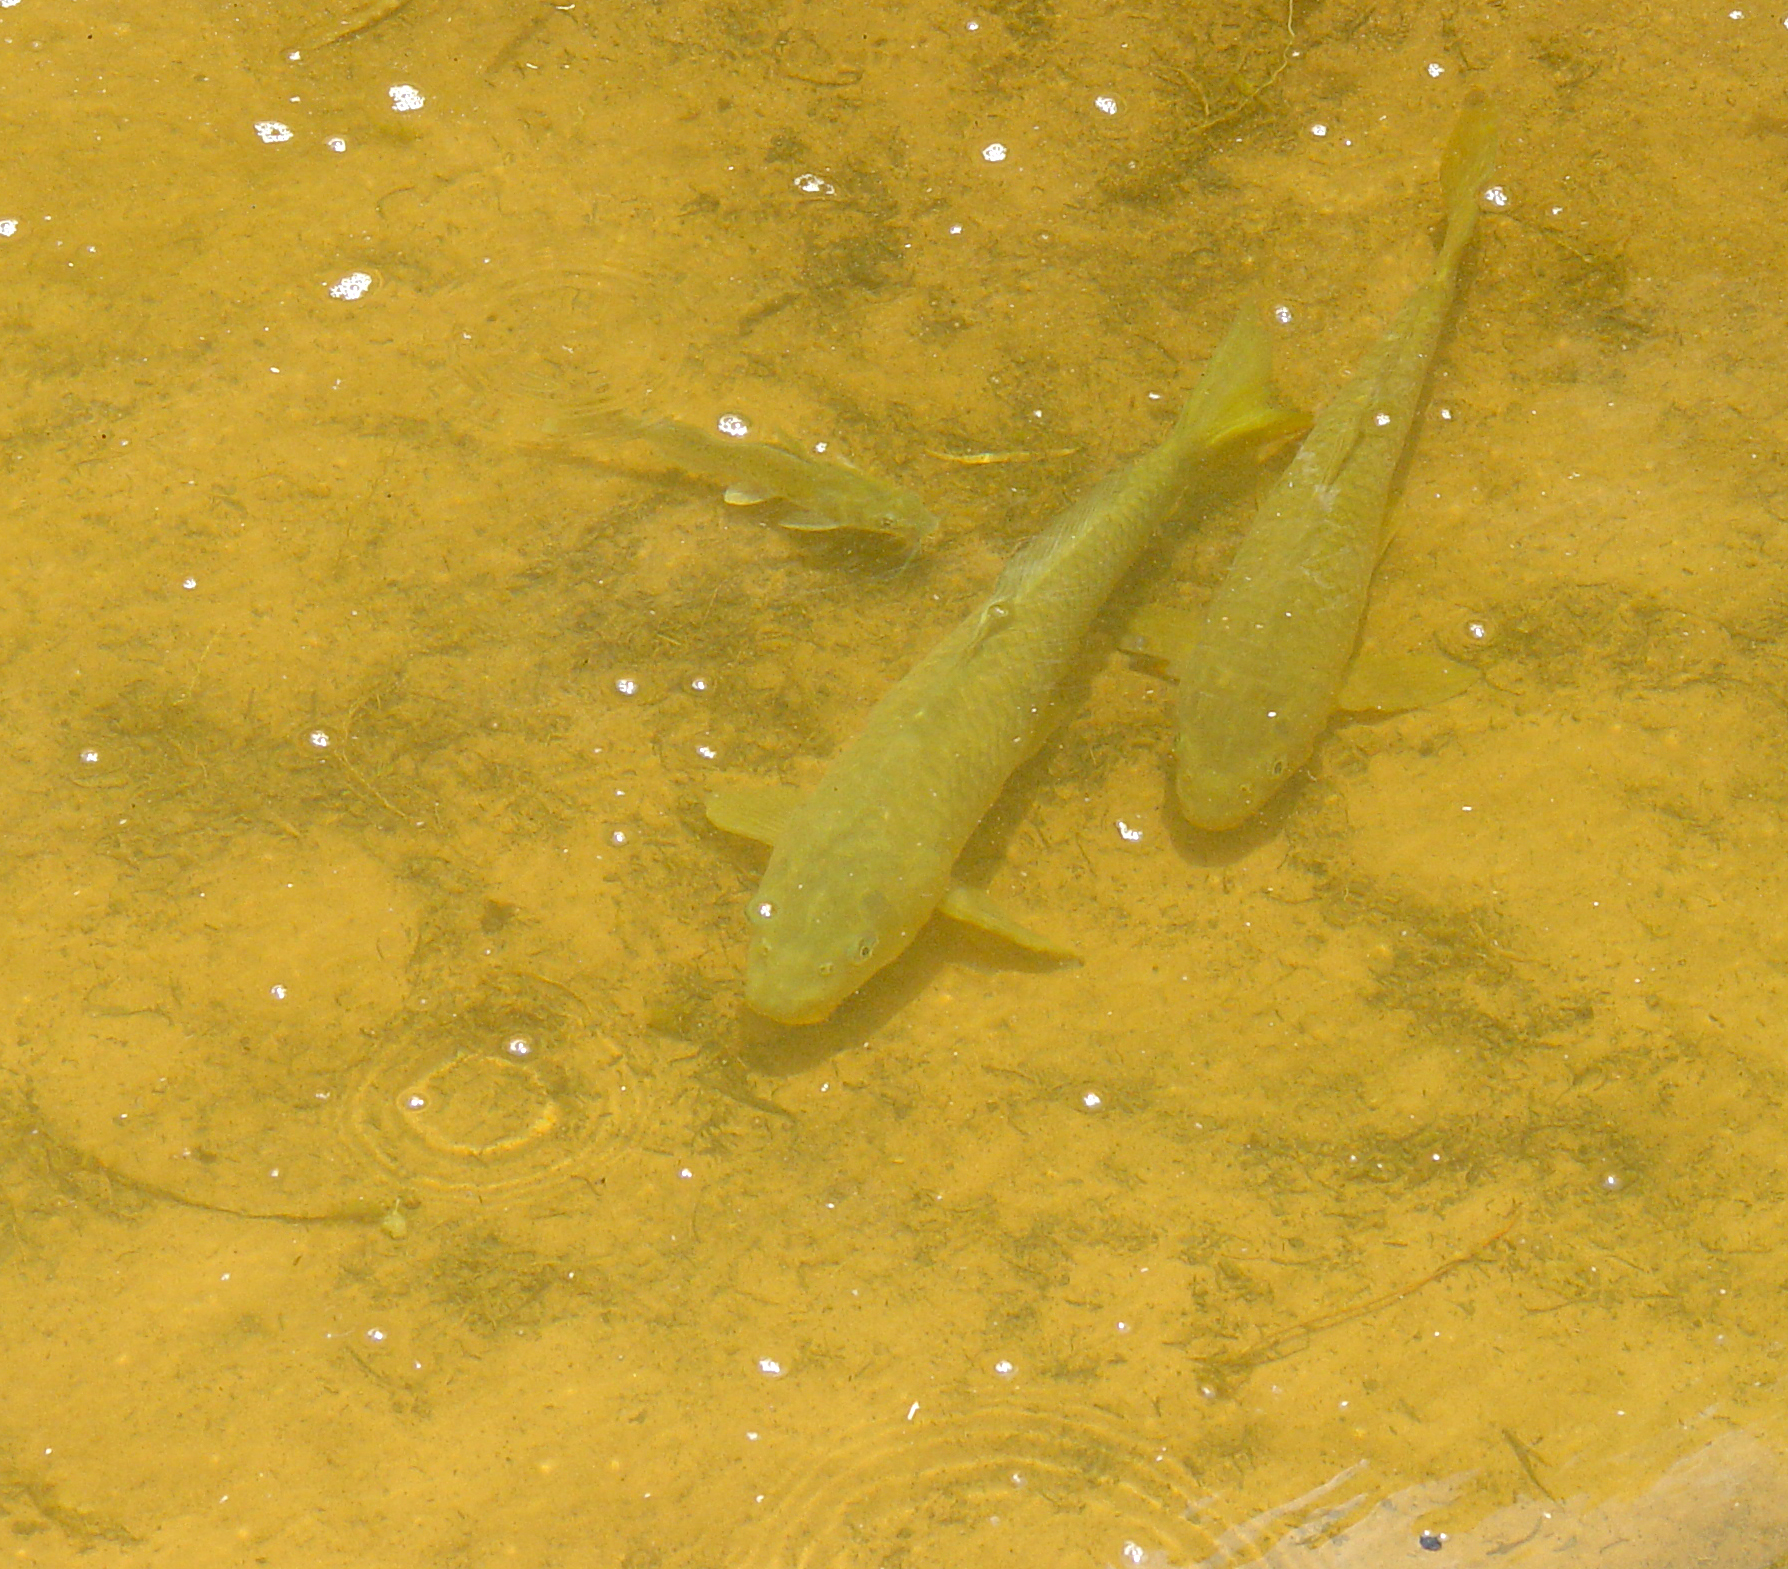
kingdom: Animalia
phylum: Chordata
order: Cypriniformes
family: Cyprinidae
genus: Cyprinus
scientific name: Cyprinus carpio
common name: Common carp
